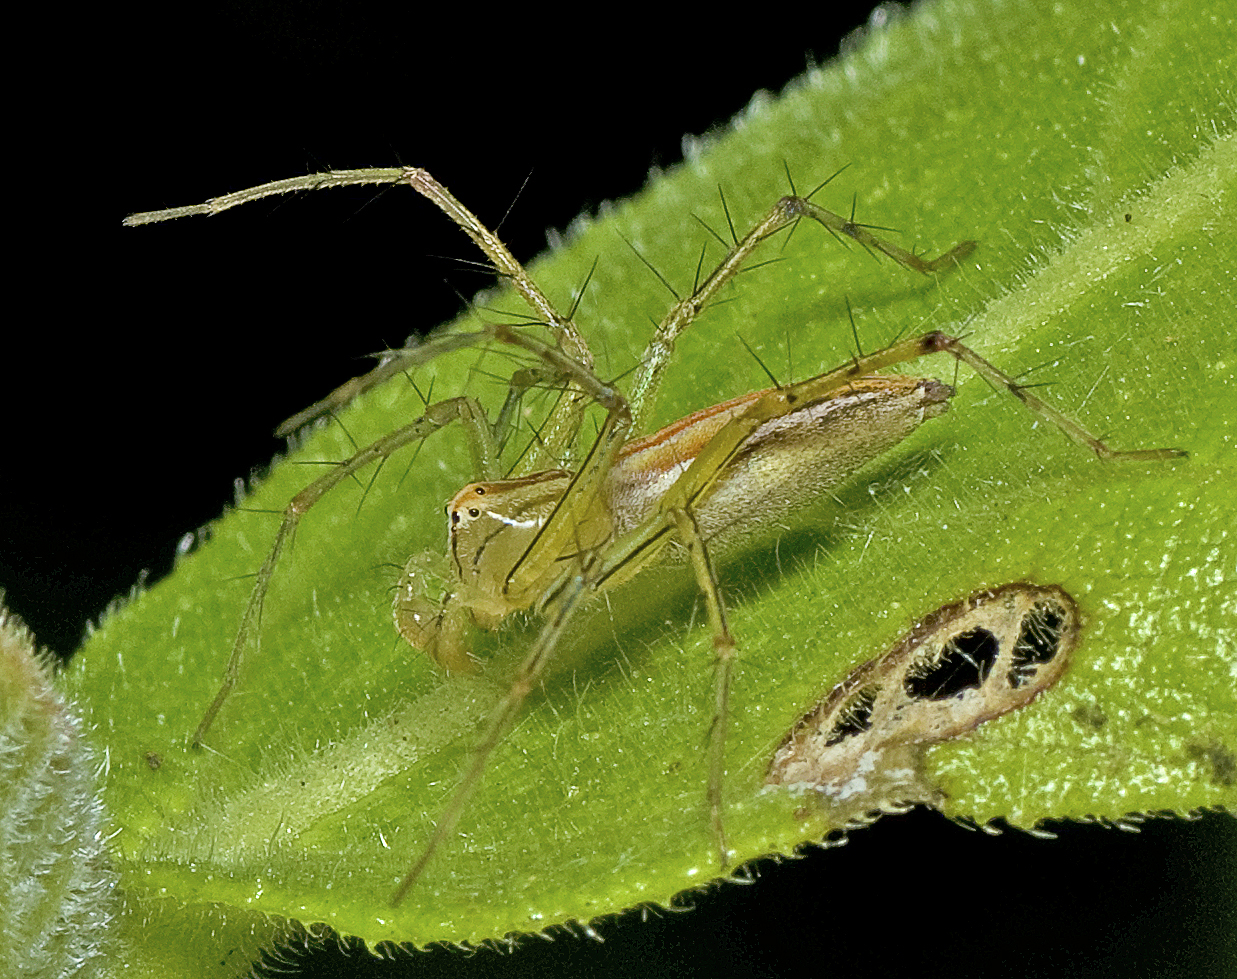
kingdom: Animalia
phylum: Arthropoda
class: Arachnida
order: Araneae
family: Oxyopidae
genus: Oxyopes
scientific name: Oxyopes macilentus
